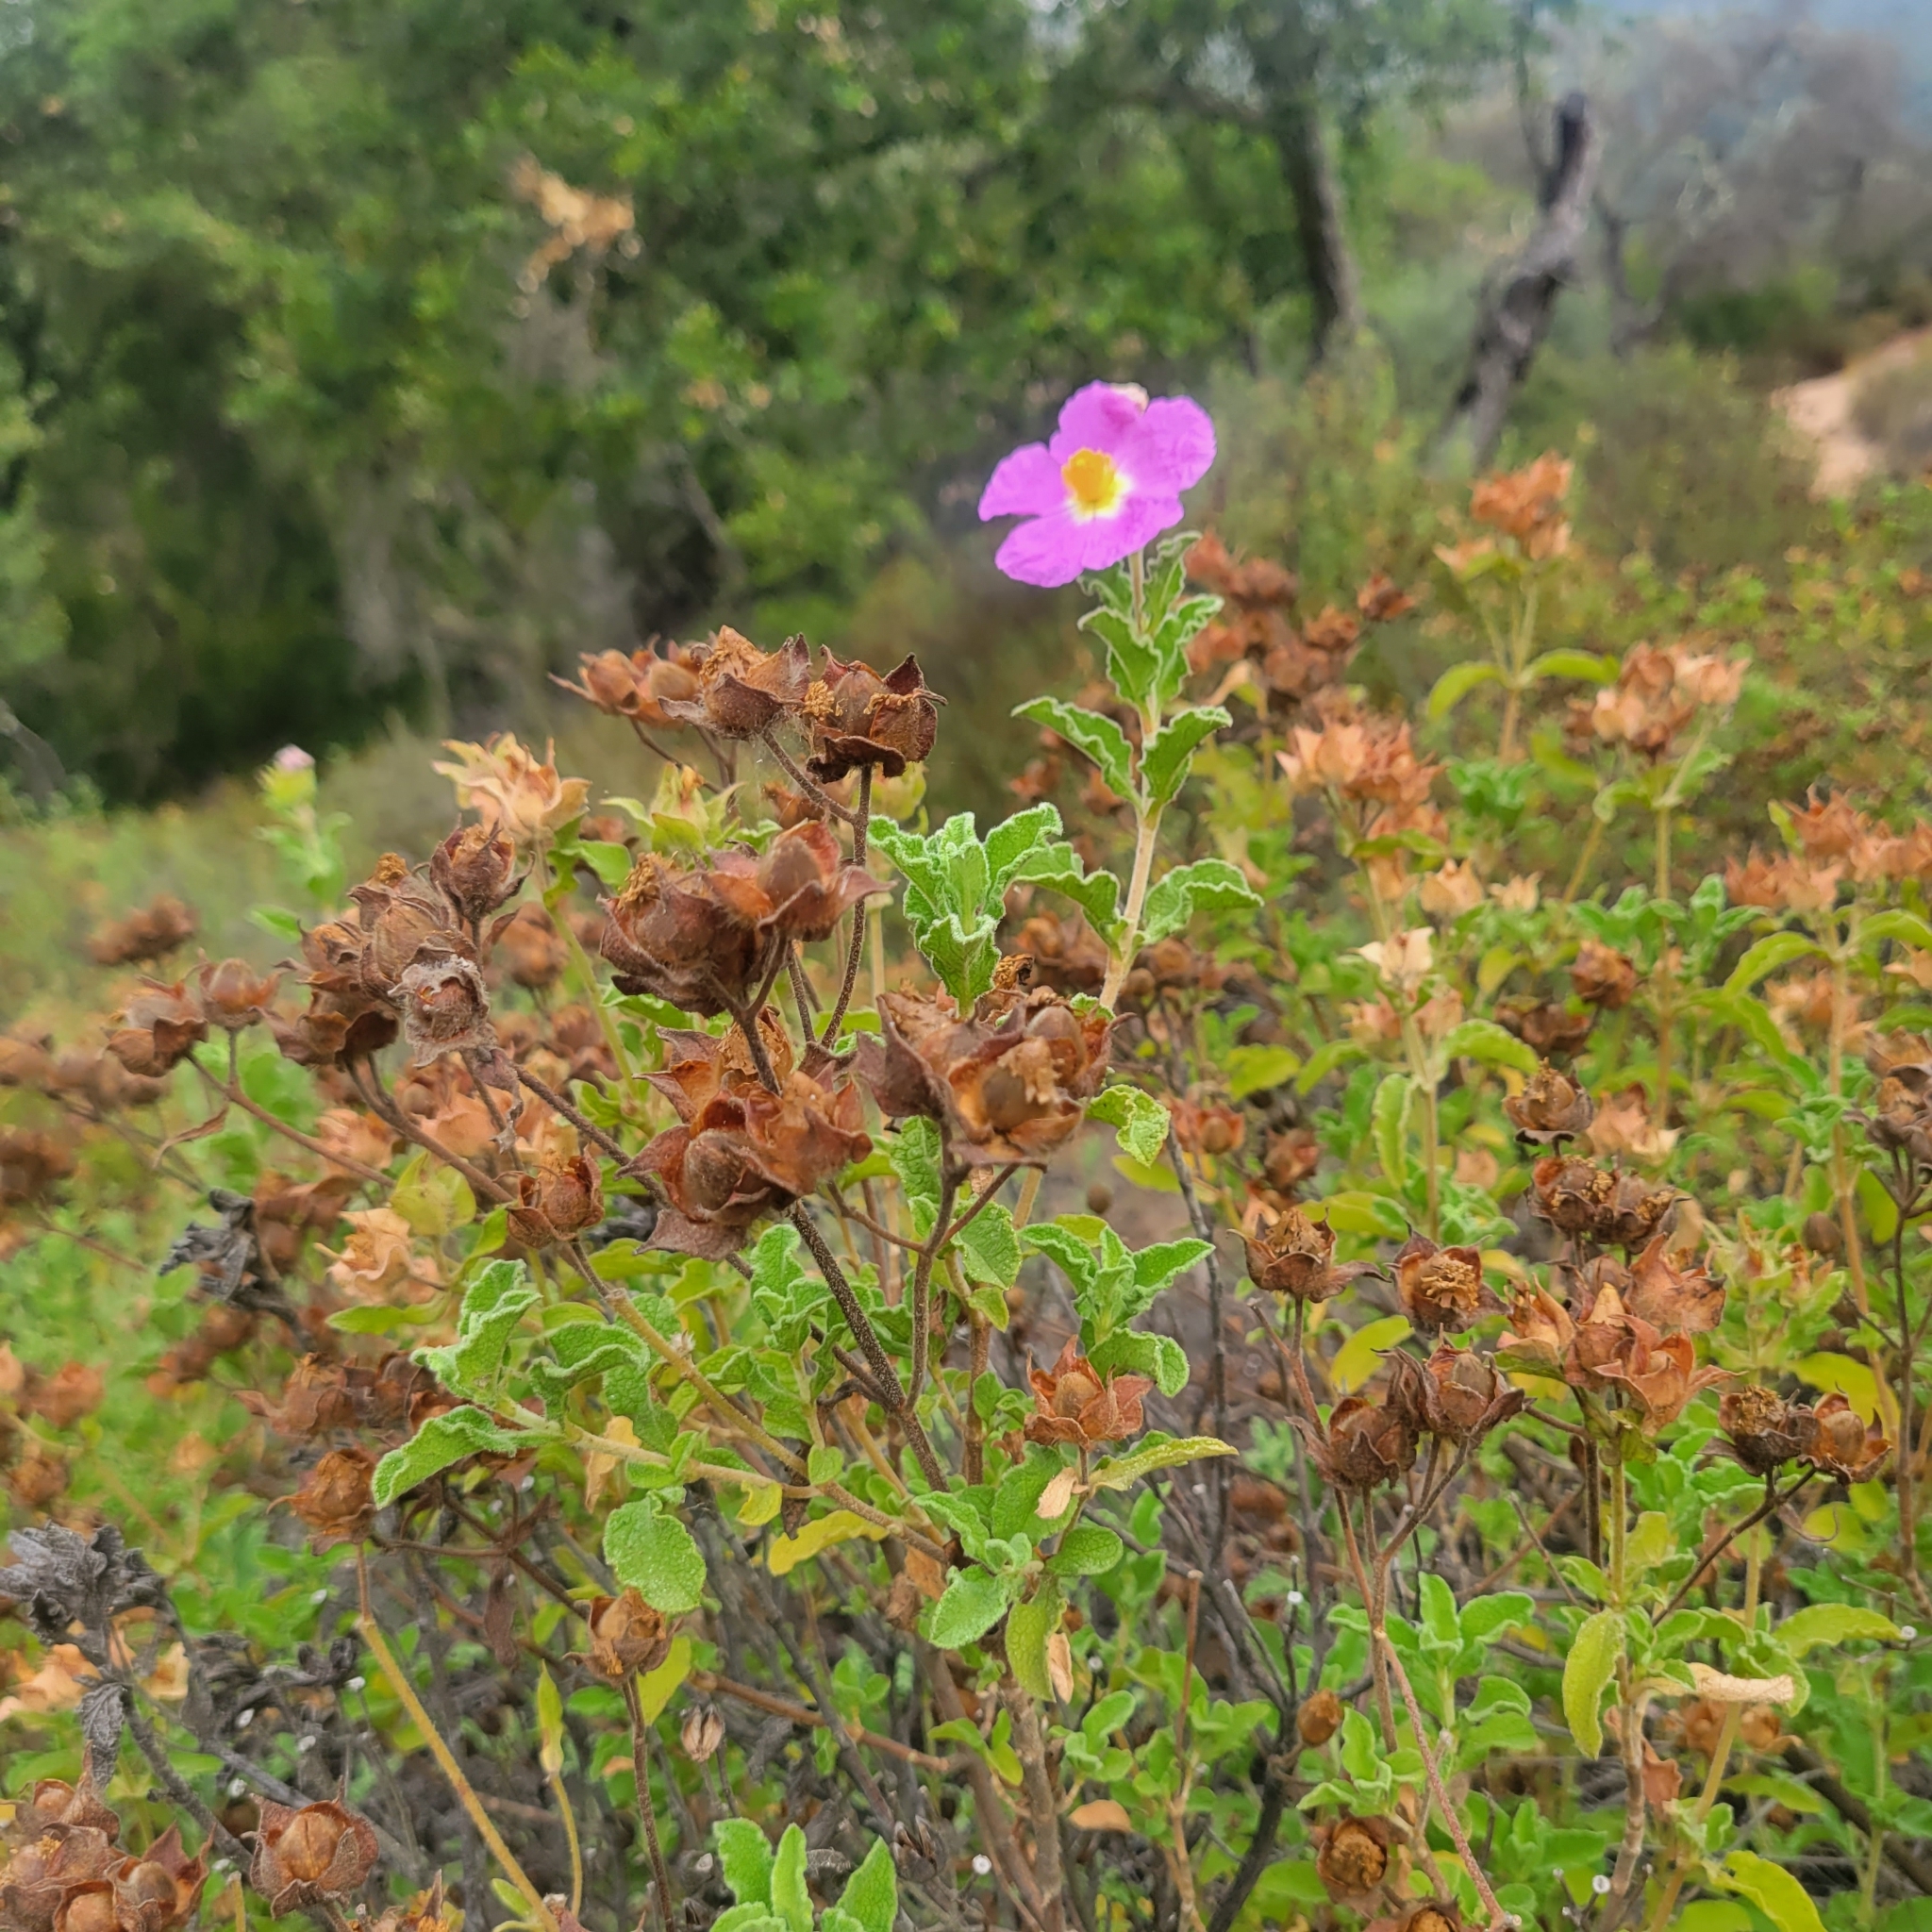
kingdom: Plantae
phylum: Tracheophyta
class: Magnoliopsida
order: Malvales
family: Cistaceae
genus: Cistus
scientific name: Cistus creticus
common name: Cretan rockrose
